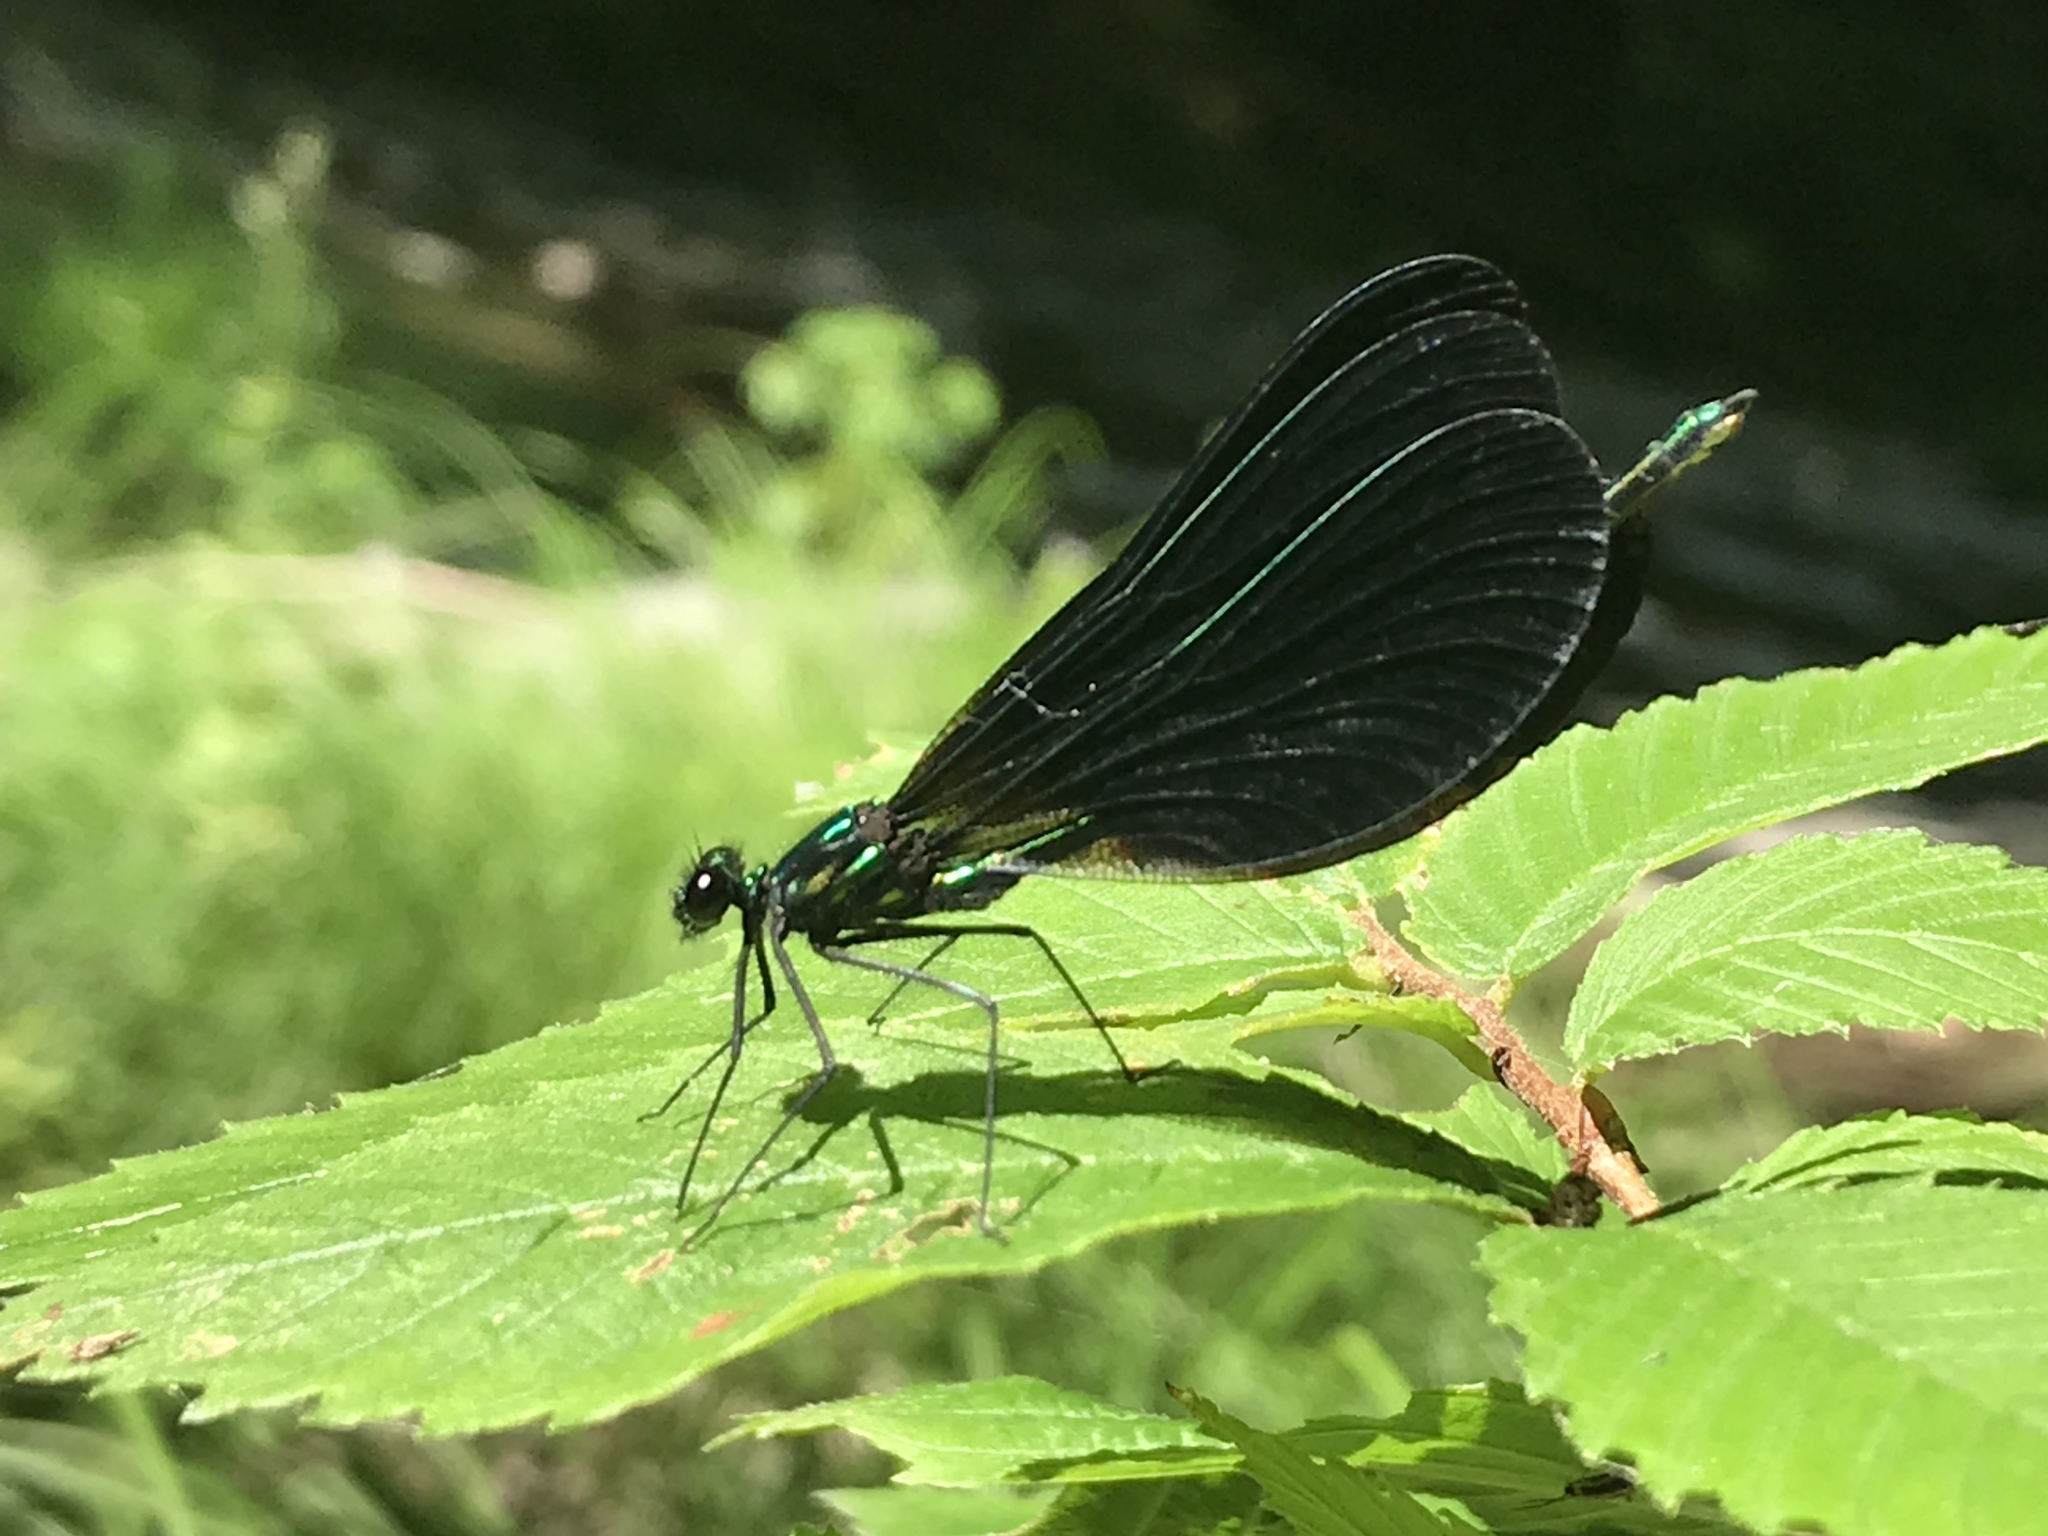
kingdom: Animalia
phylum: Arthropoda
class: Insecta
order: Odonata
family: Calopterygidae
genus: Calopteryx
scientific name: Calopteryx maculata
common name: Ebony jewelwing
